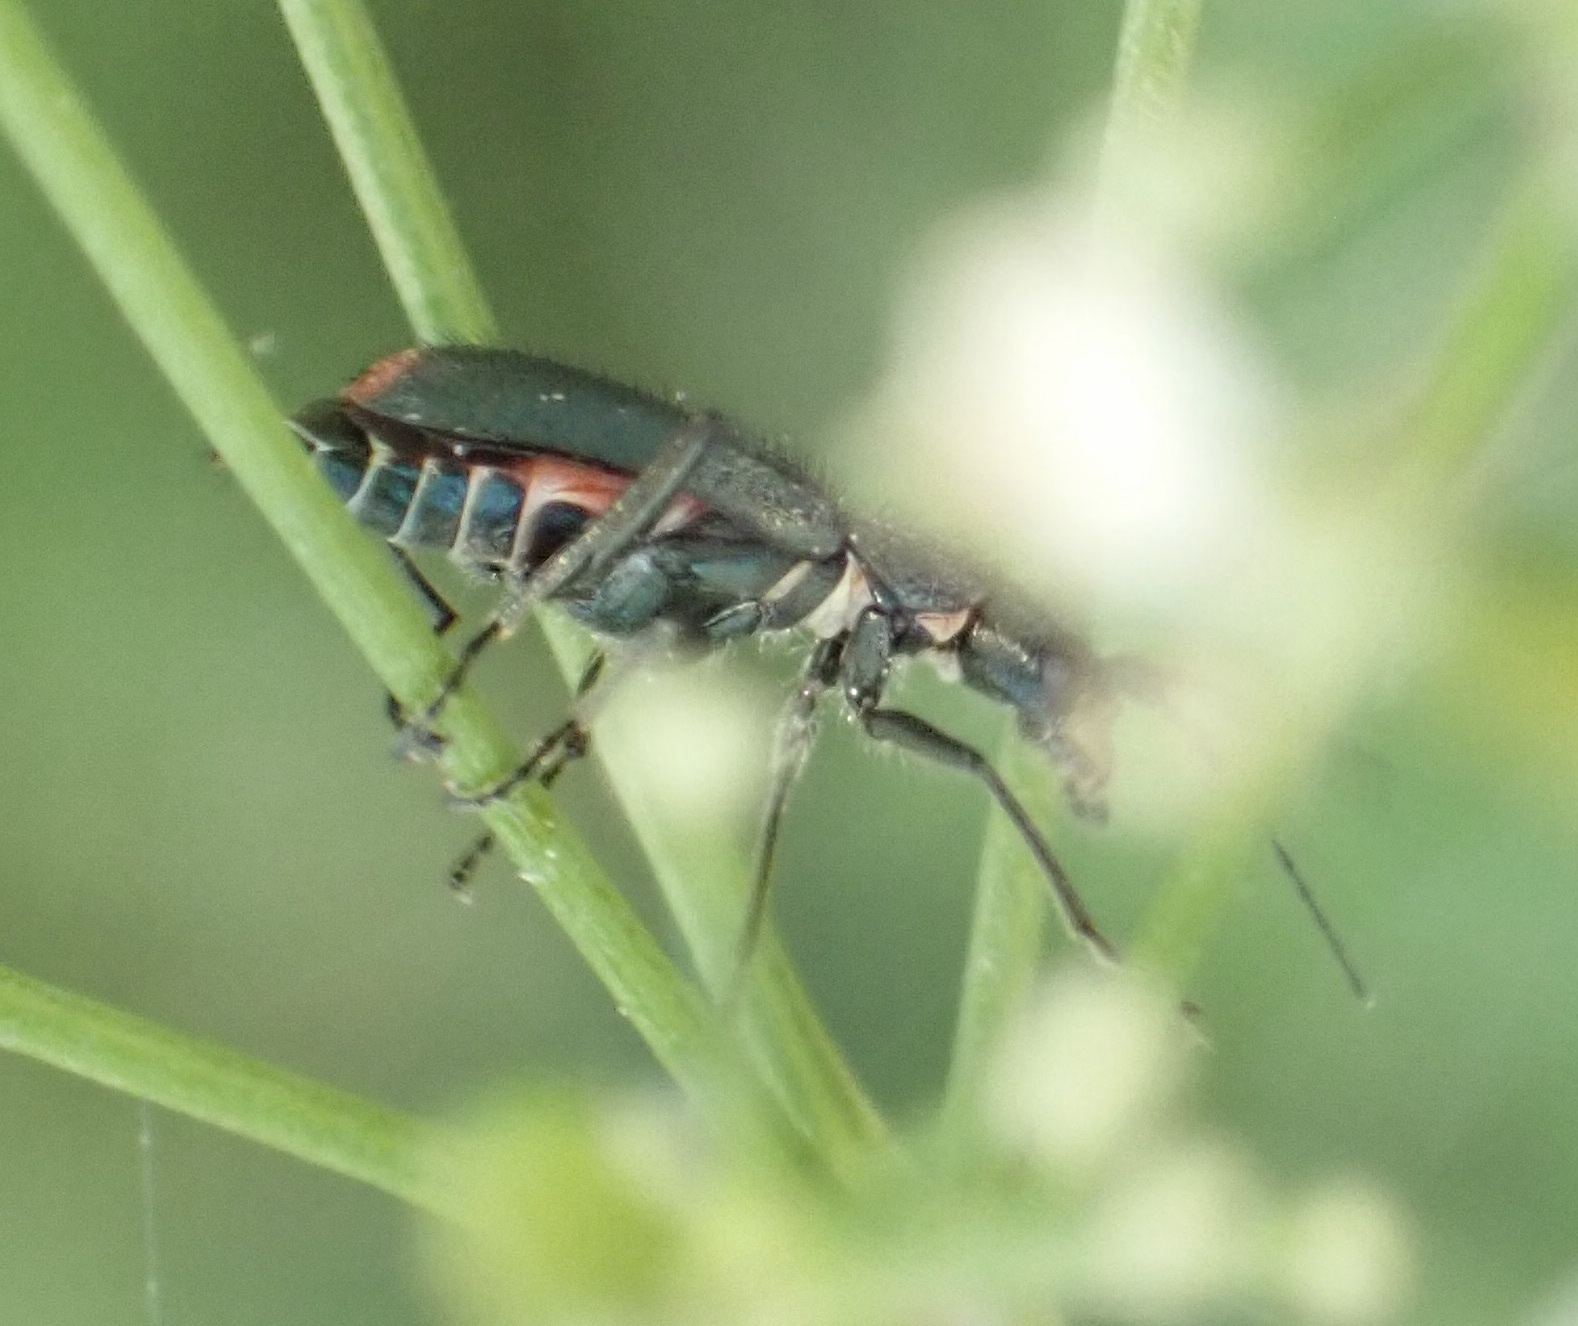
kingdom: Animalia
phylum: Arthropoda
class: Insecta
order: Coleoptera
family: Malachiidae
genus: Cordylepherus
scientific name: Cordylepherus viridis
